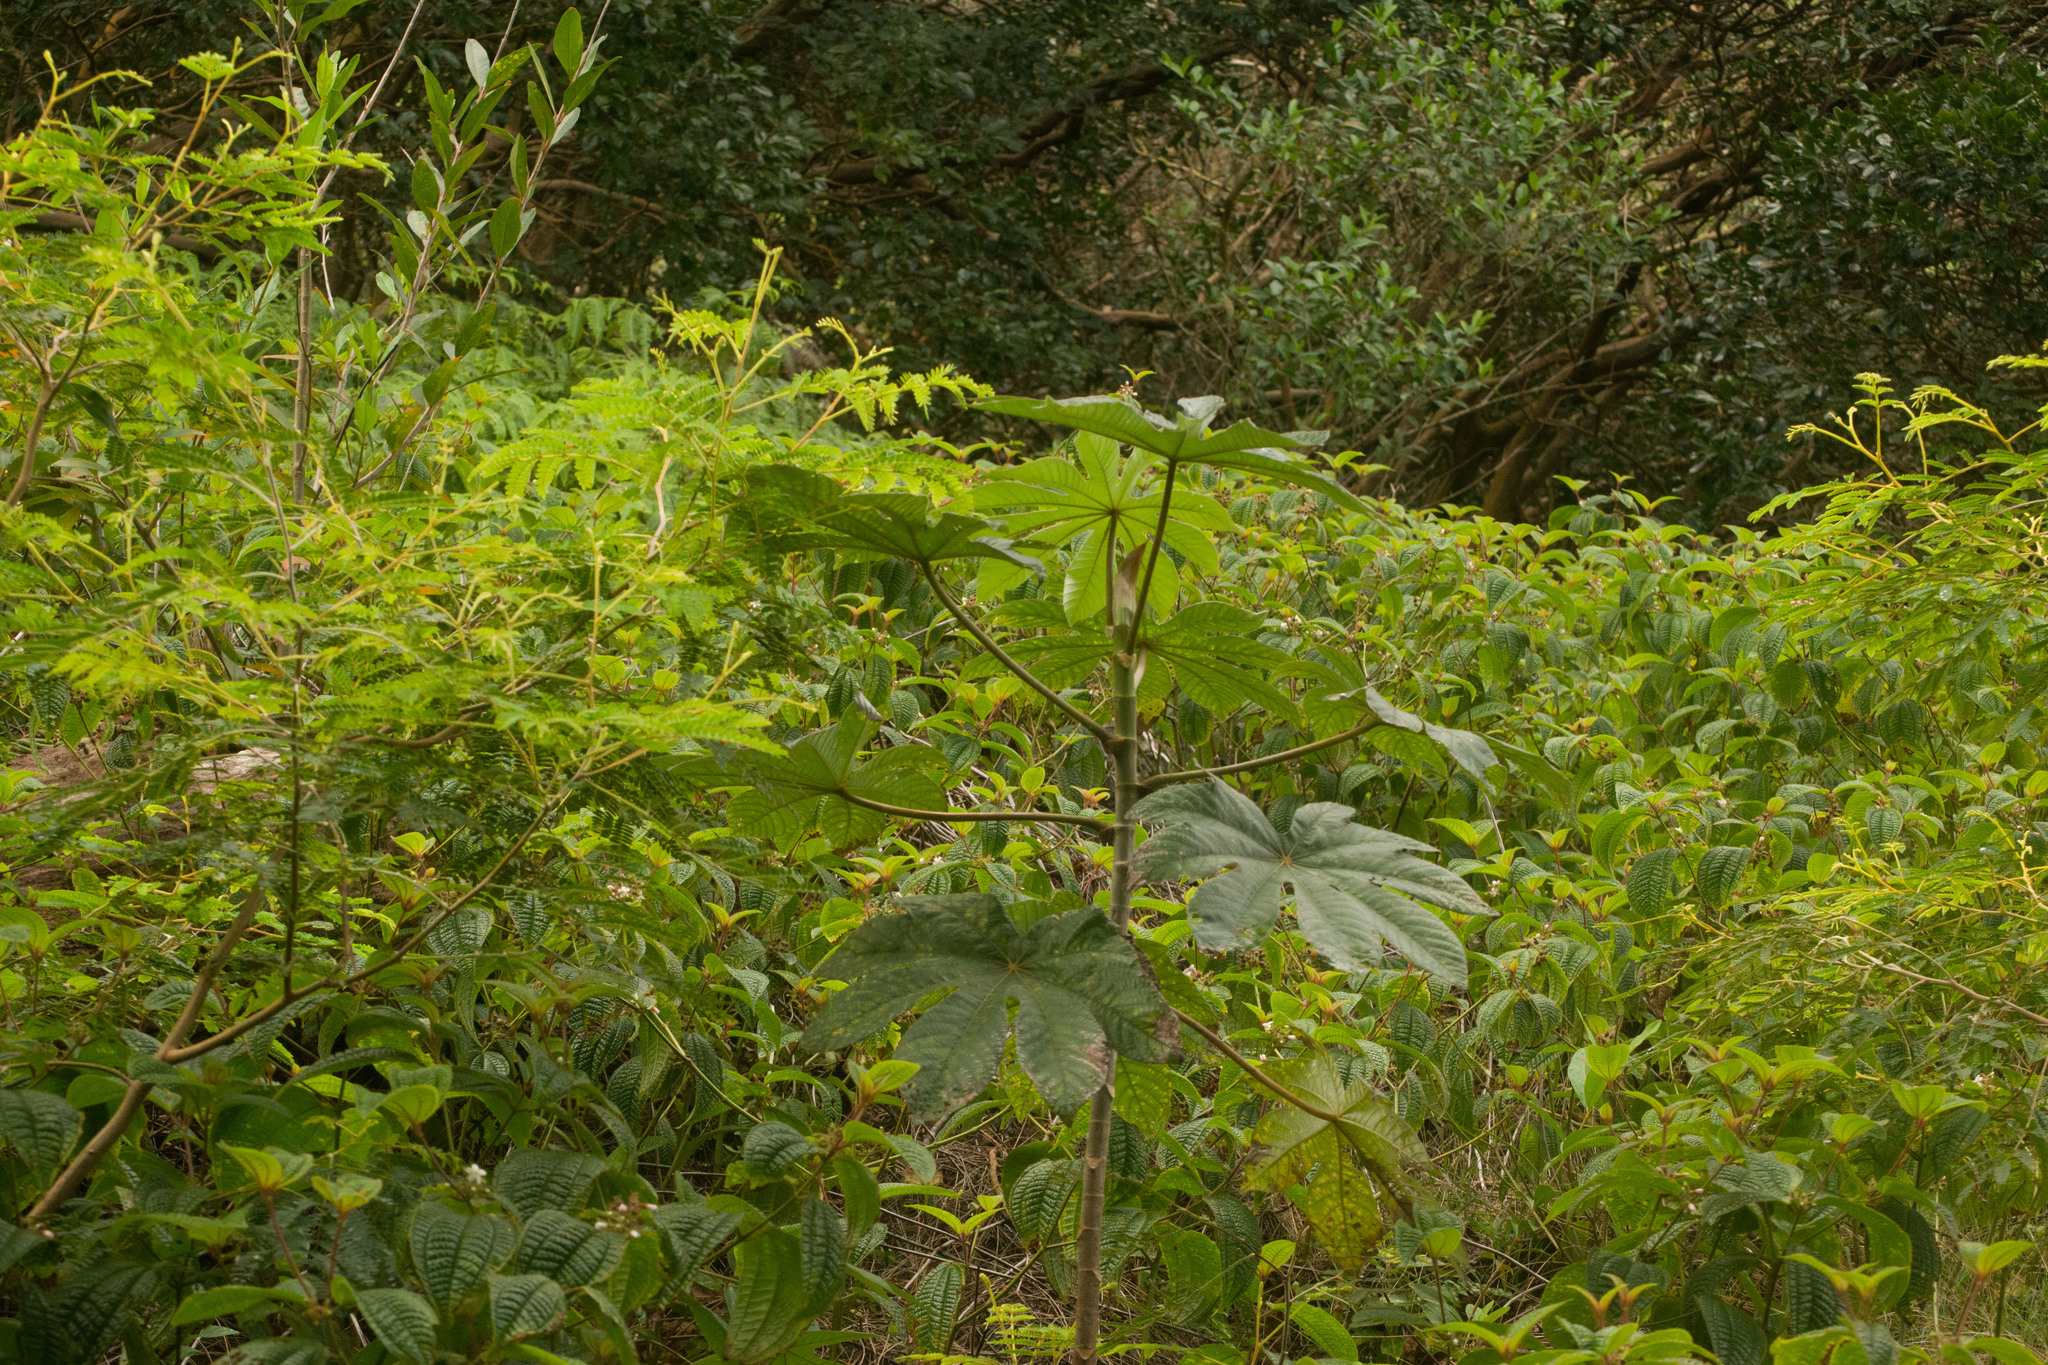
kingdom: Plantae
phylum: Tracheophyta
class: Magnoliopsida
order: Malpighiales
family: Euphorbiaceae
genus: Ricinus
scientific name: Ricinus communis
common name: Castor-oil-plant
